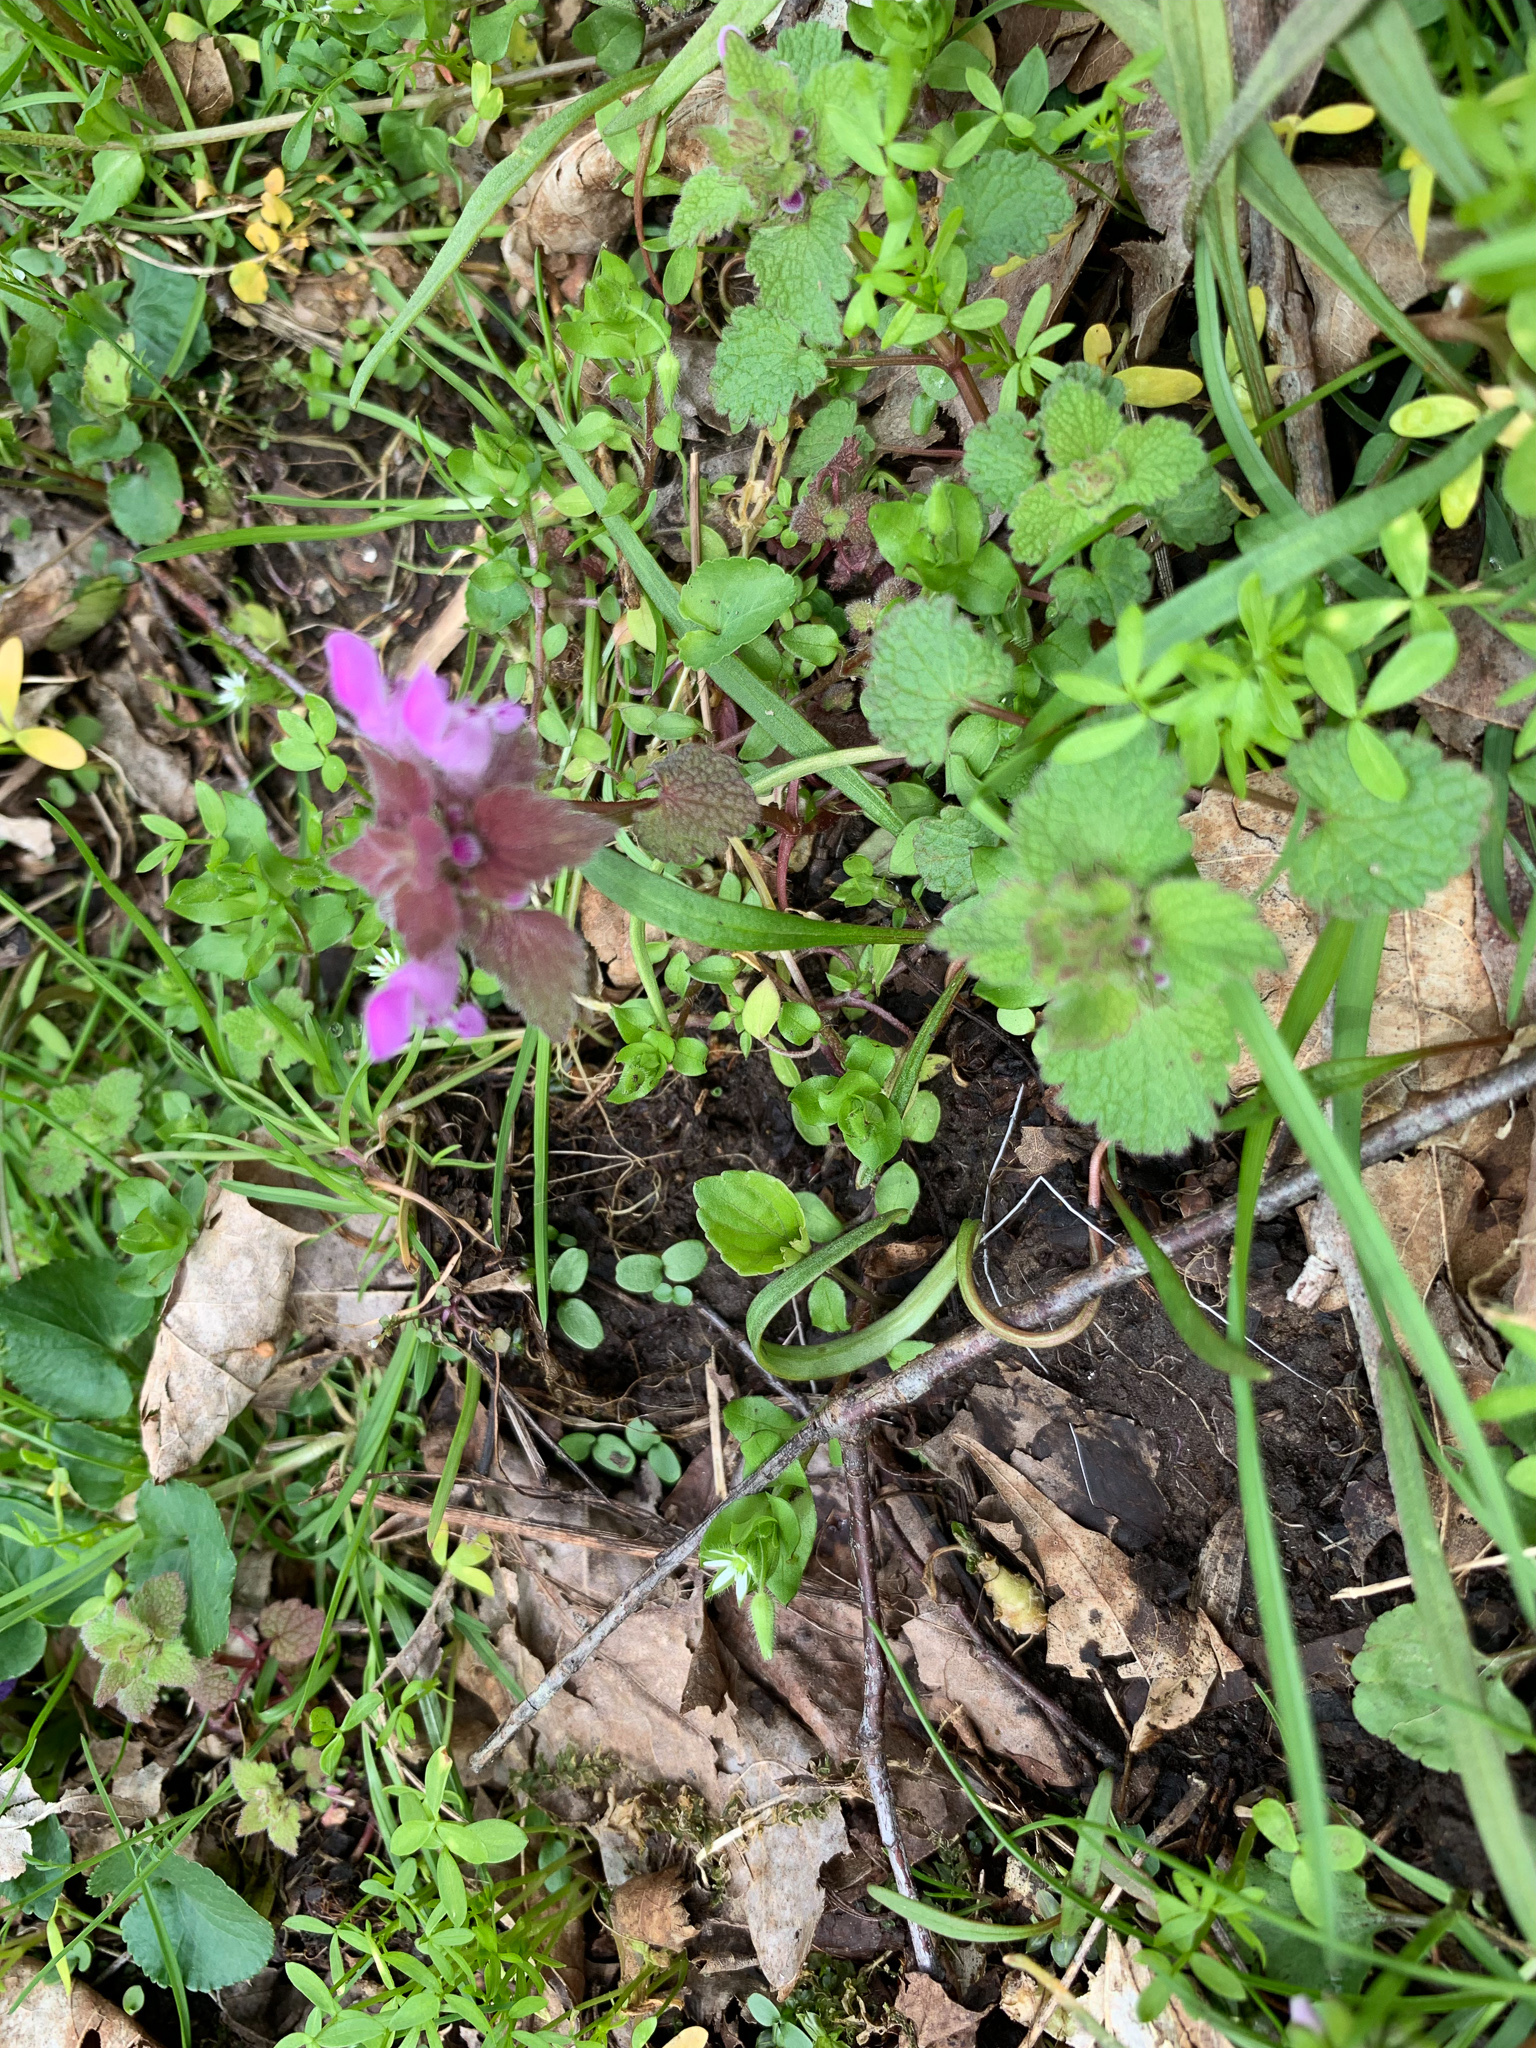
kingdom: Plantae
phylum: Tracheophyta
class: Magnoliopsida
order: Lamiales
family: Lamiaceae
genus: Lamium
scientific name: Lamium purpureum
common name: Red dead-nettle
